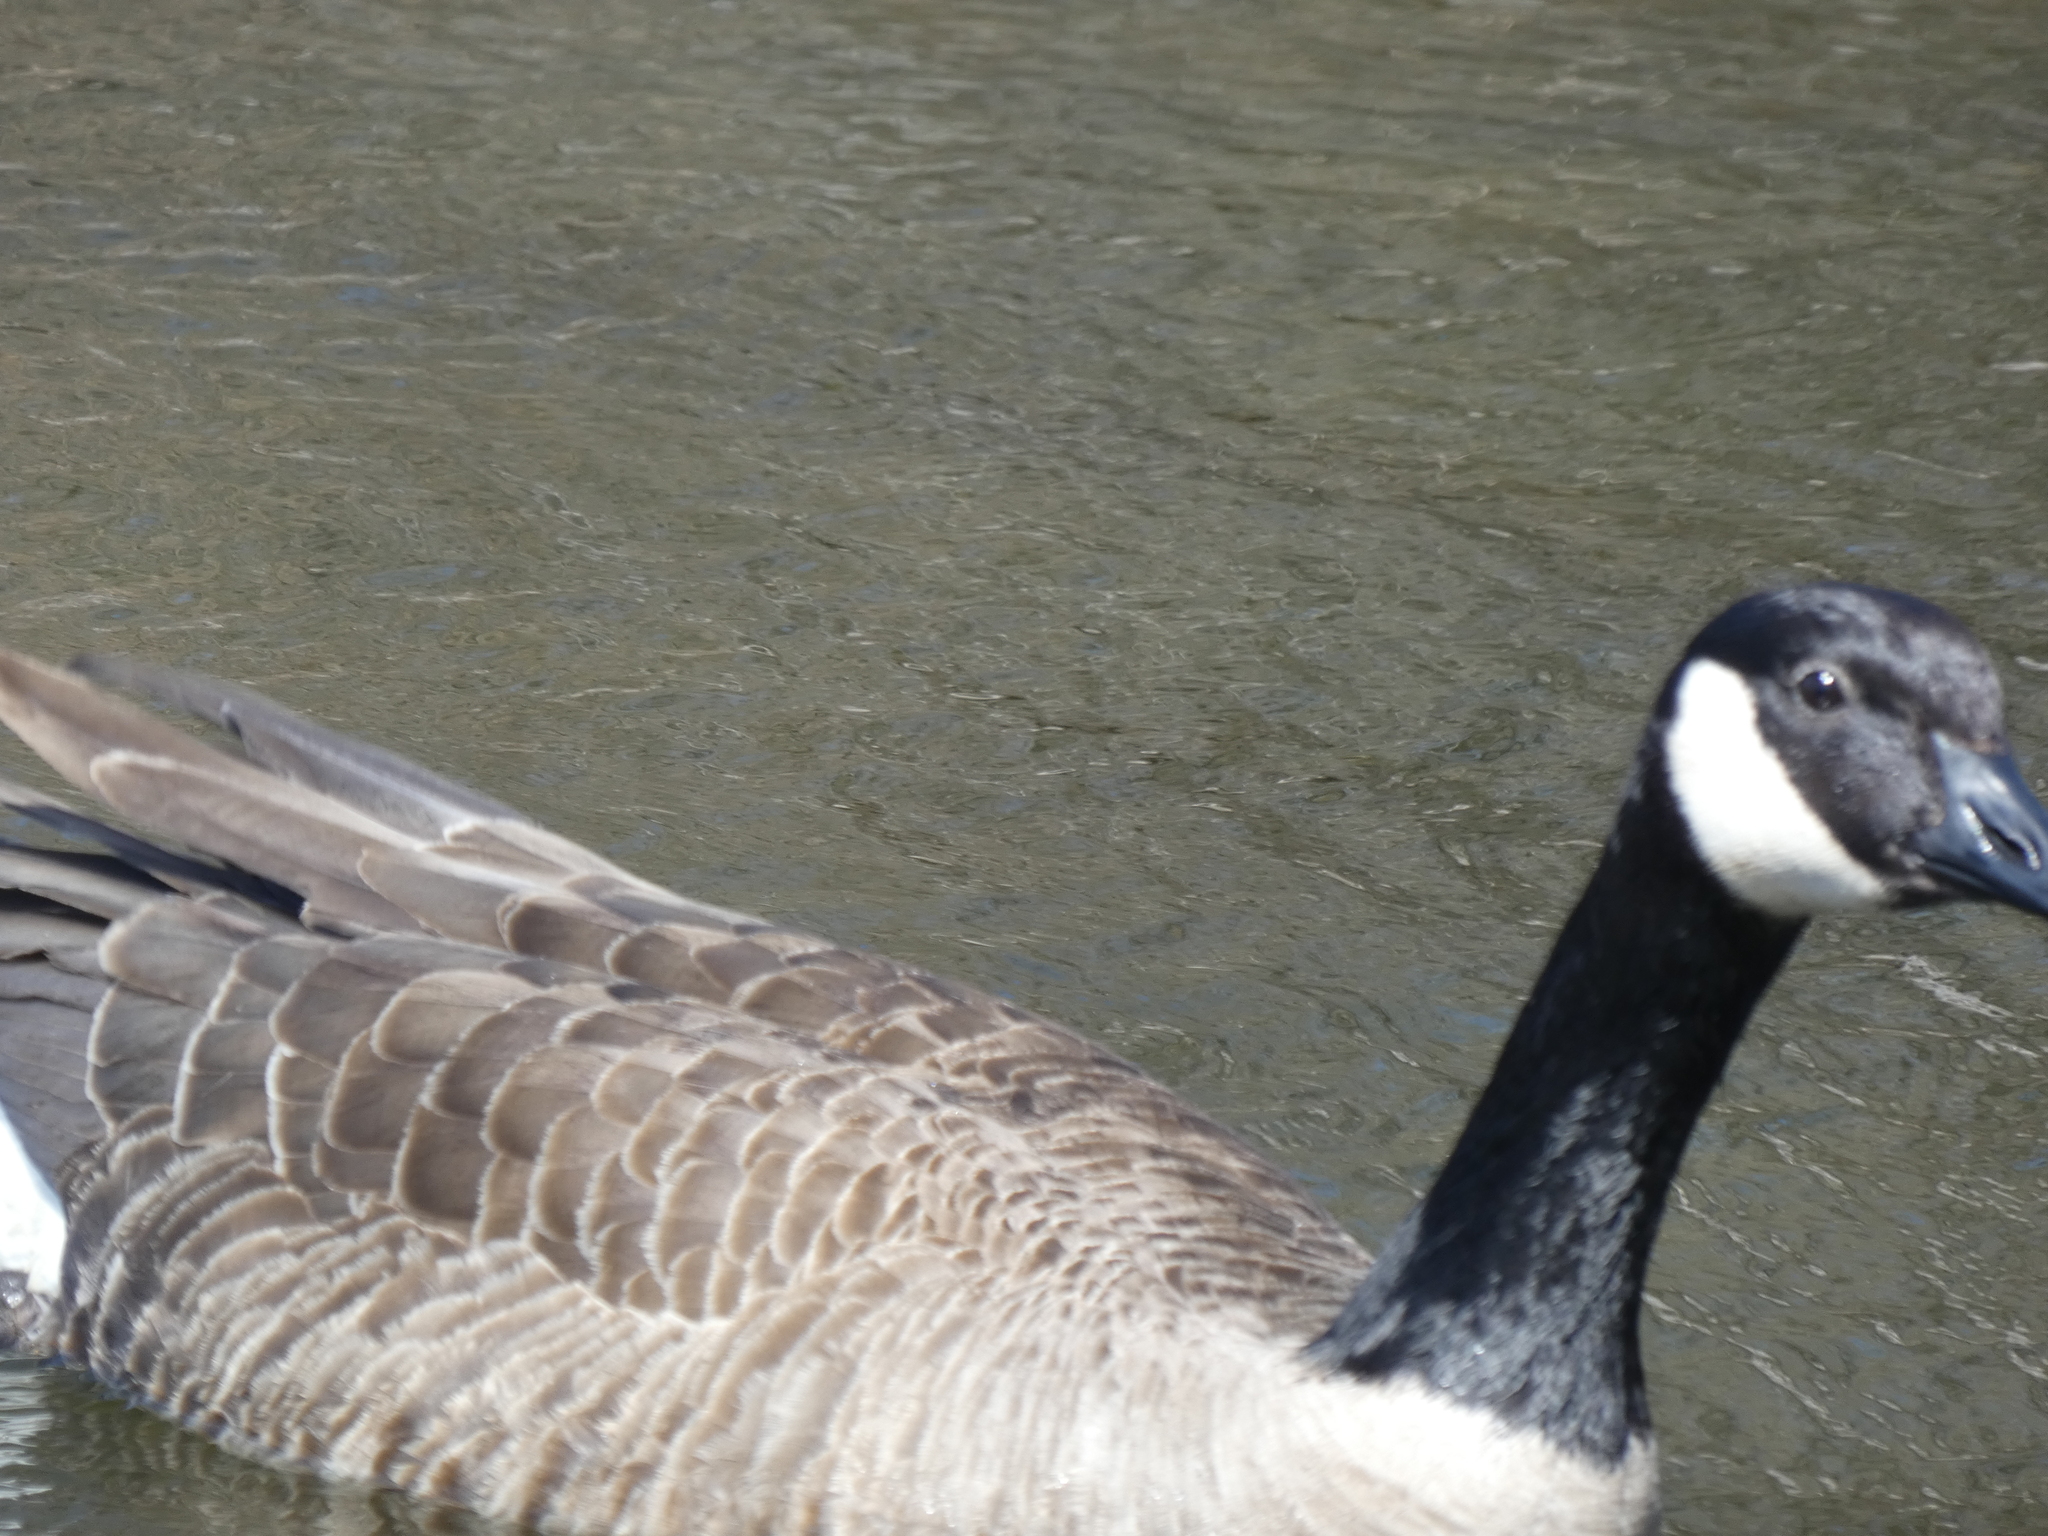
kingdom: Animalia
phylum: Chordata
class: Aves
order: Anseriformes
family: Anatidae
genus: Branta
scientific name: Branta canadensis
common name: Canada goose
